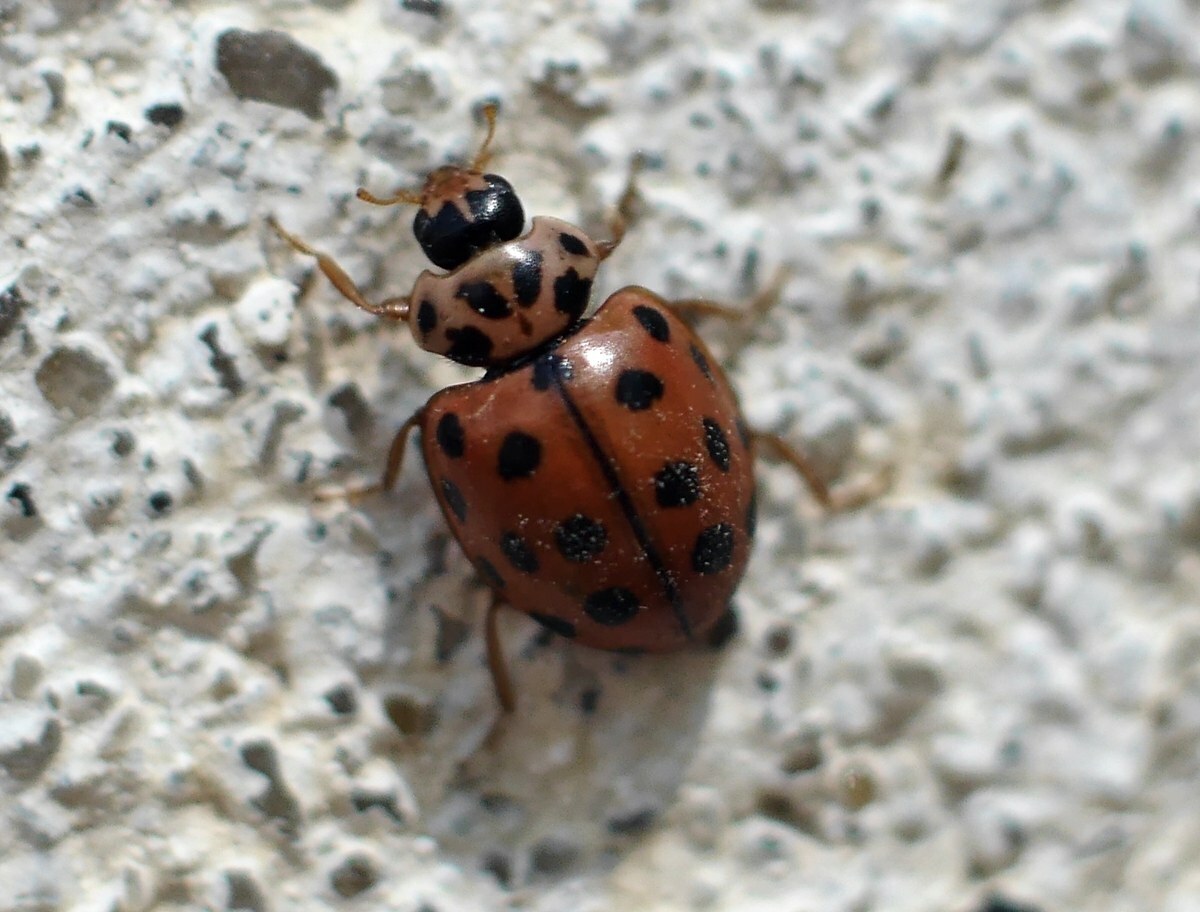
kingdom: Animalia
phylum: Arthropoda
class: Insecta
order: Coleoptera
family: Coccinellidae
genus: Bulaea
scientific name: Bulaea lichatschovi
